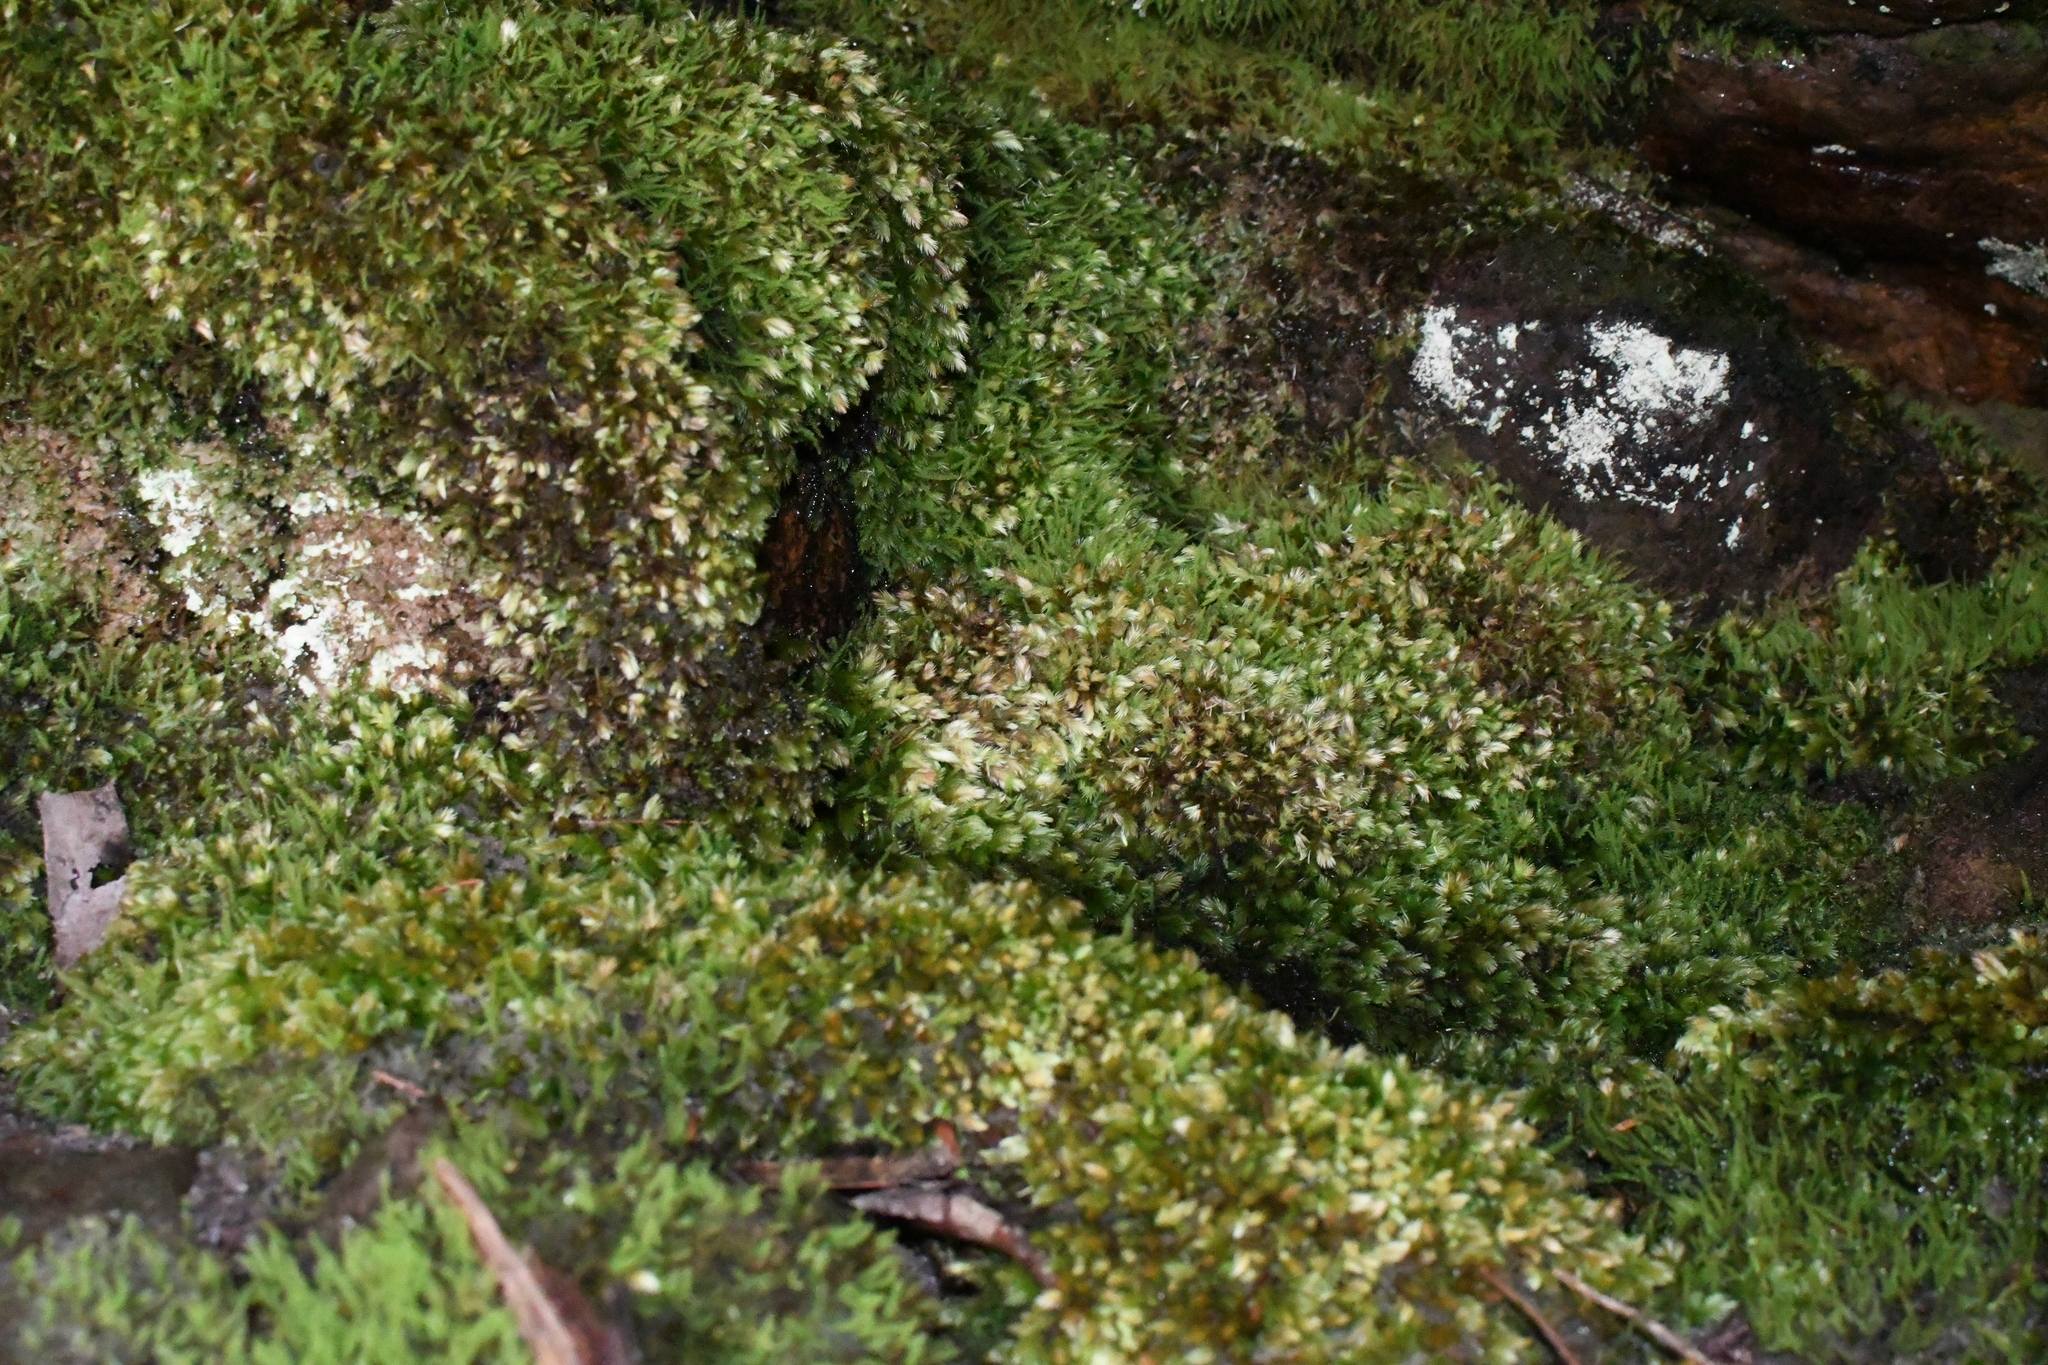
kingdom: Plantae
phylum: Bryophyta
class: Bryopsida
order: Dicranales
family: Leucobryaceae
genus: Leucobryum
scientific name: Leucobryum javense
